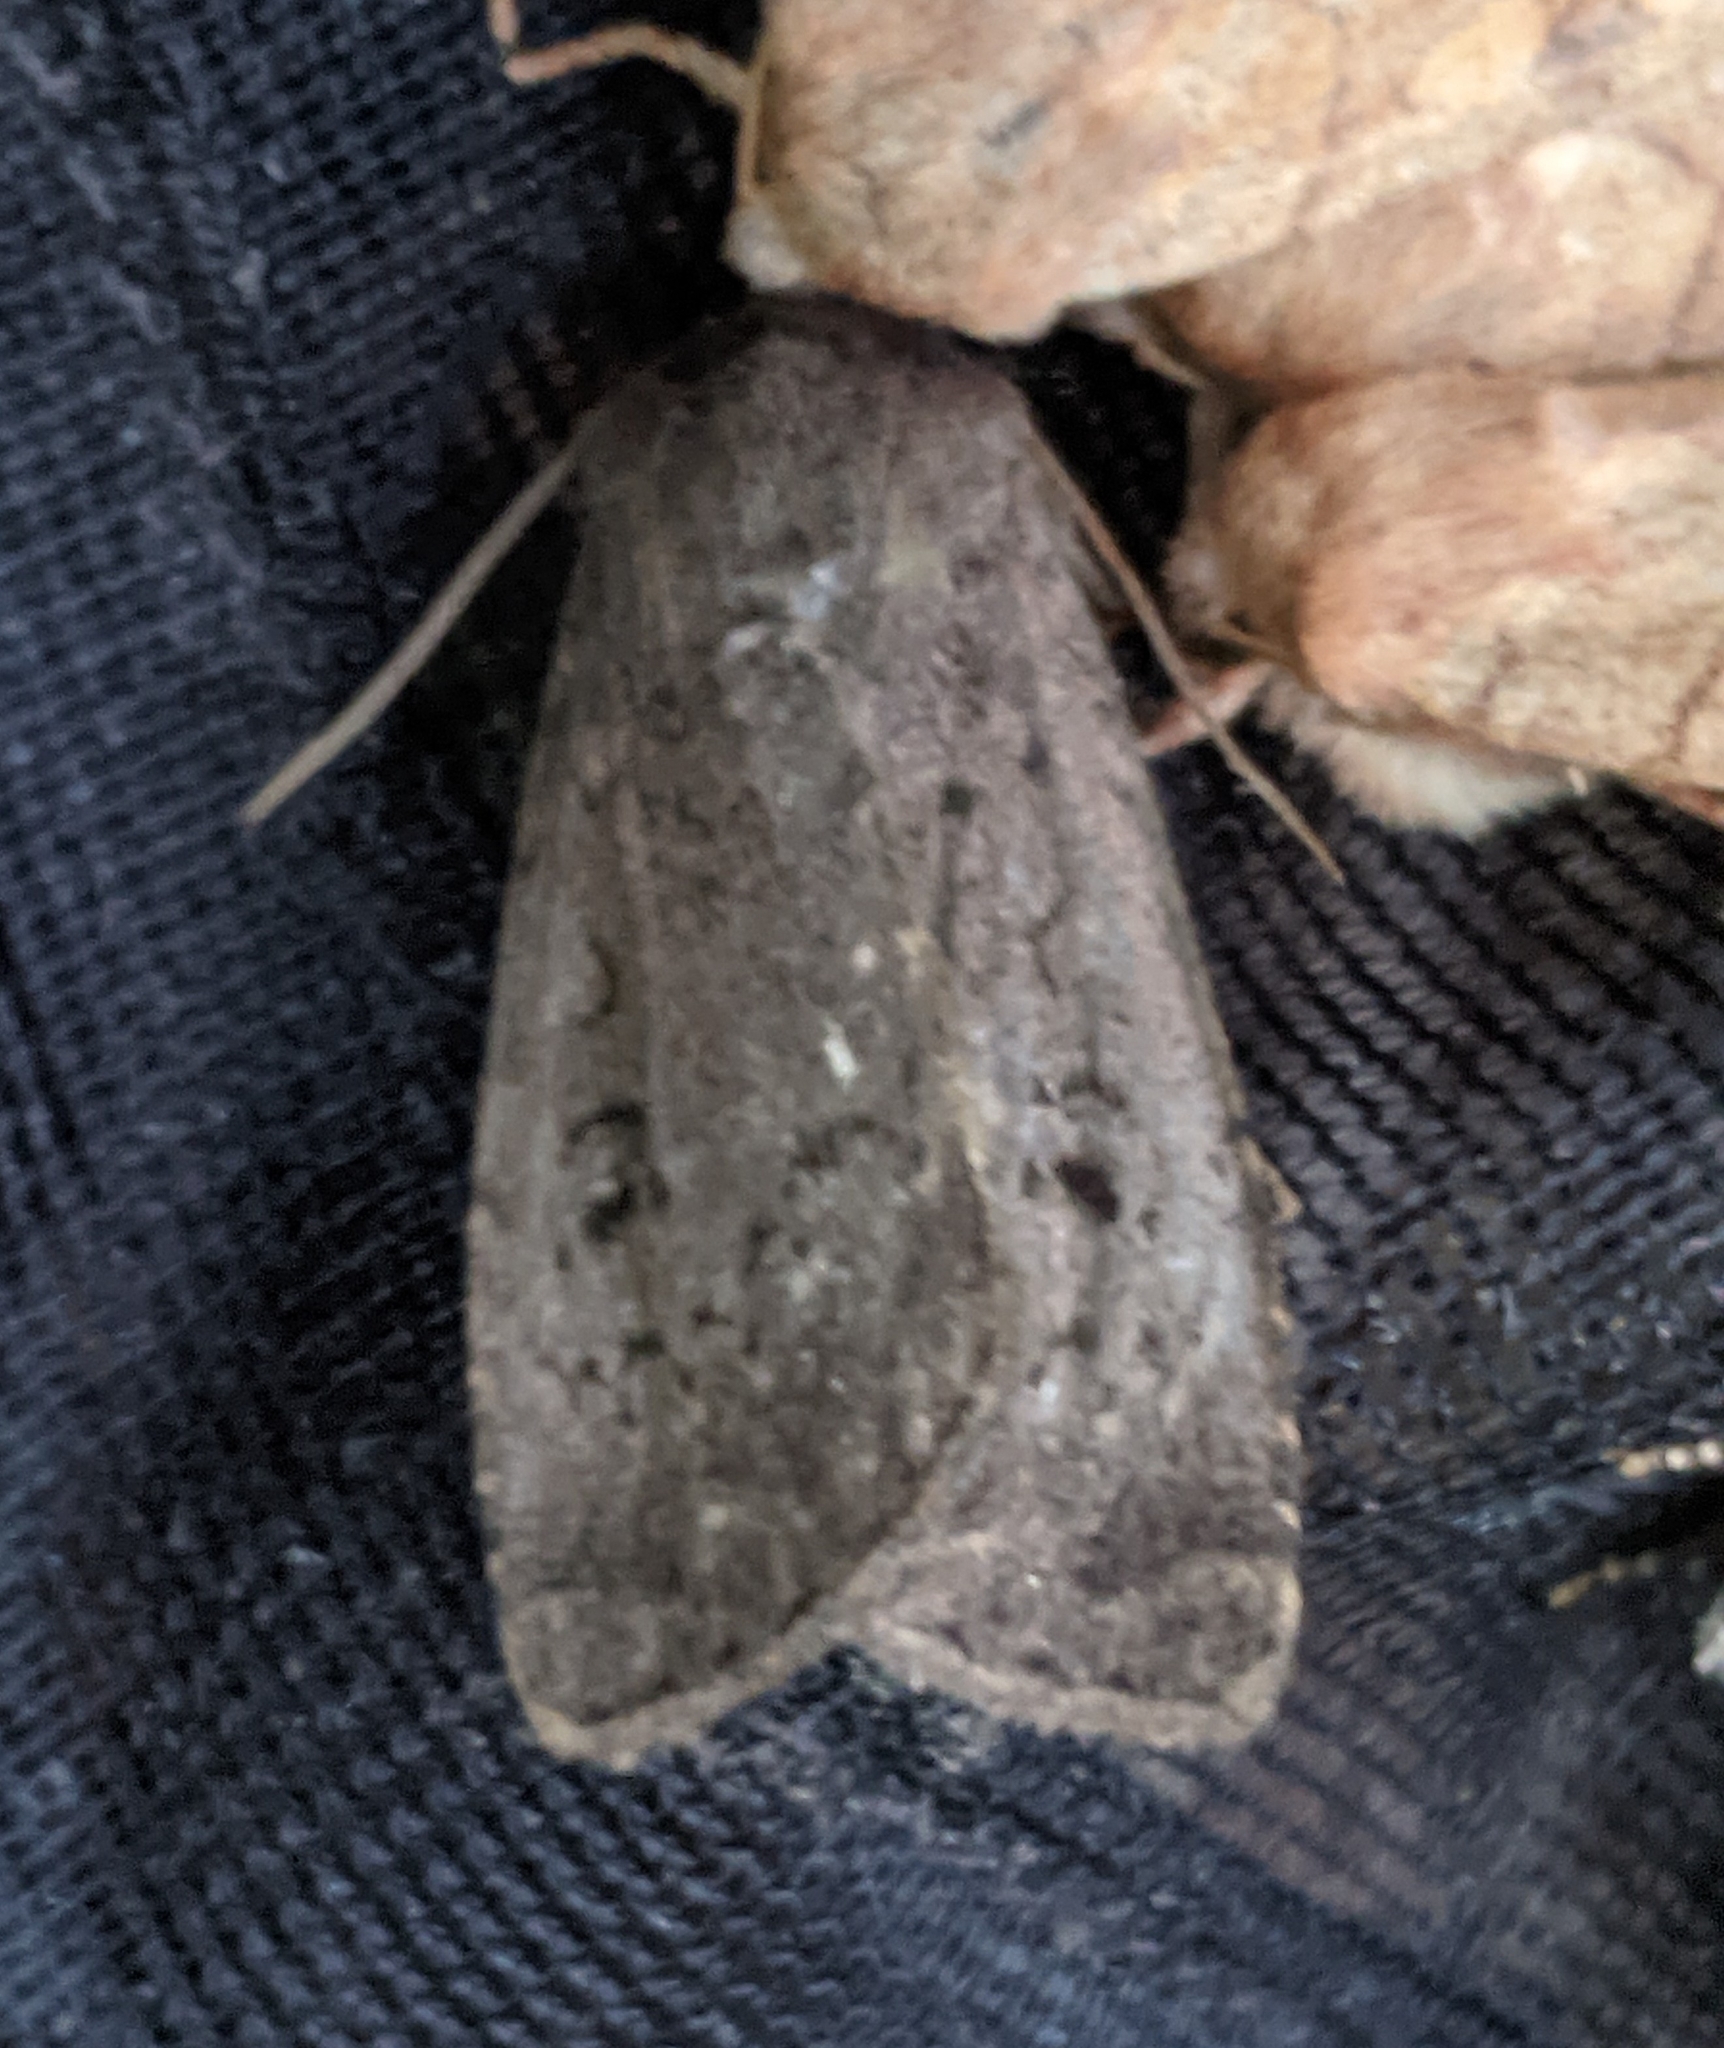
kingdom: Animalia
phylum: Arthropoda
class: Insecta
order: Lepidoptera
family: Noctuidae
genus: Graphiphora
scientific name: Graphiphora augur
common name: Double dart
